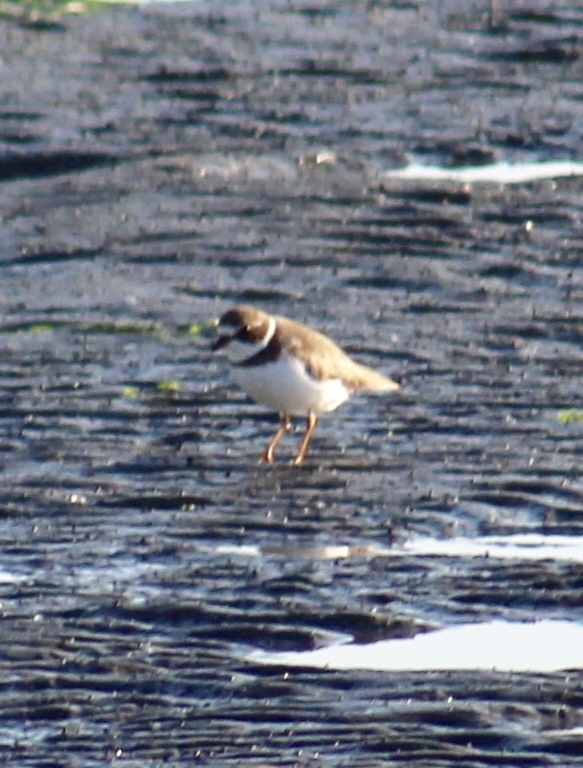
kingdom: Animalia
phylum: Chordata
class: Aves
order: Charadriiformes
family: Charadriidae
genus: Charadrius
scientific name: Charadrius semipalmatus
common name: Semipalmated plover
